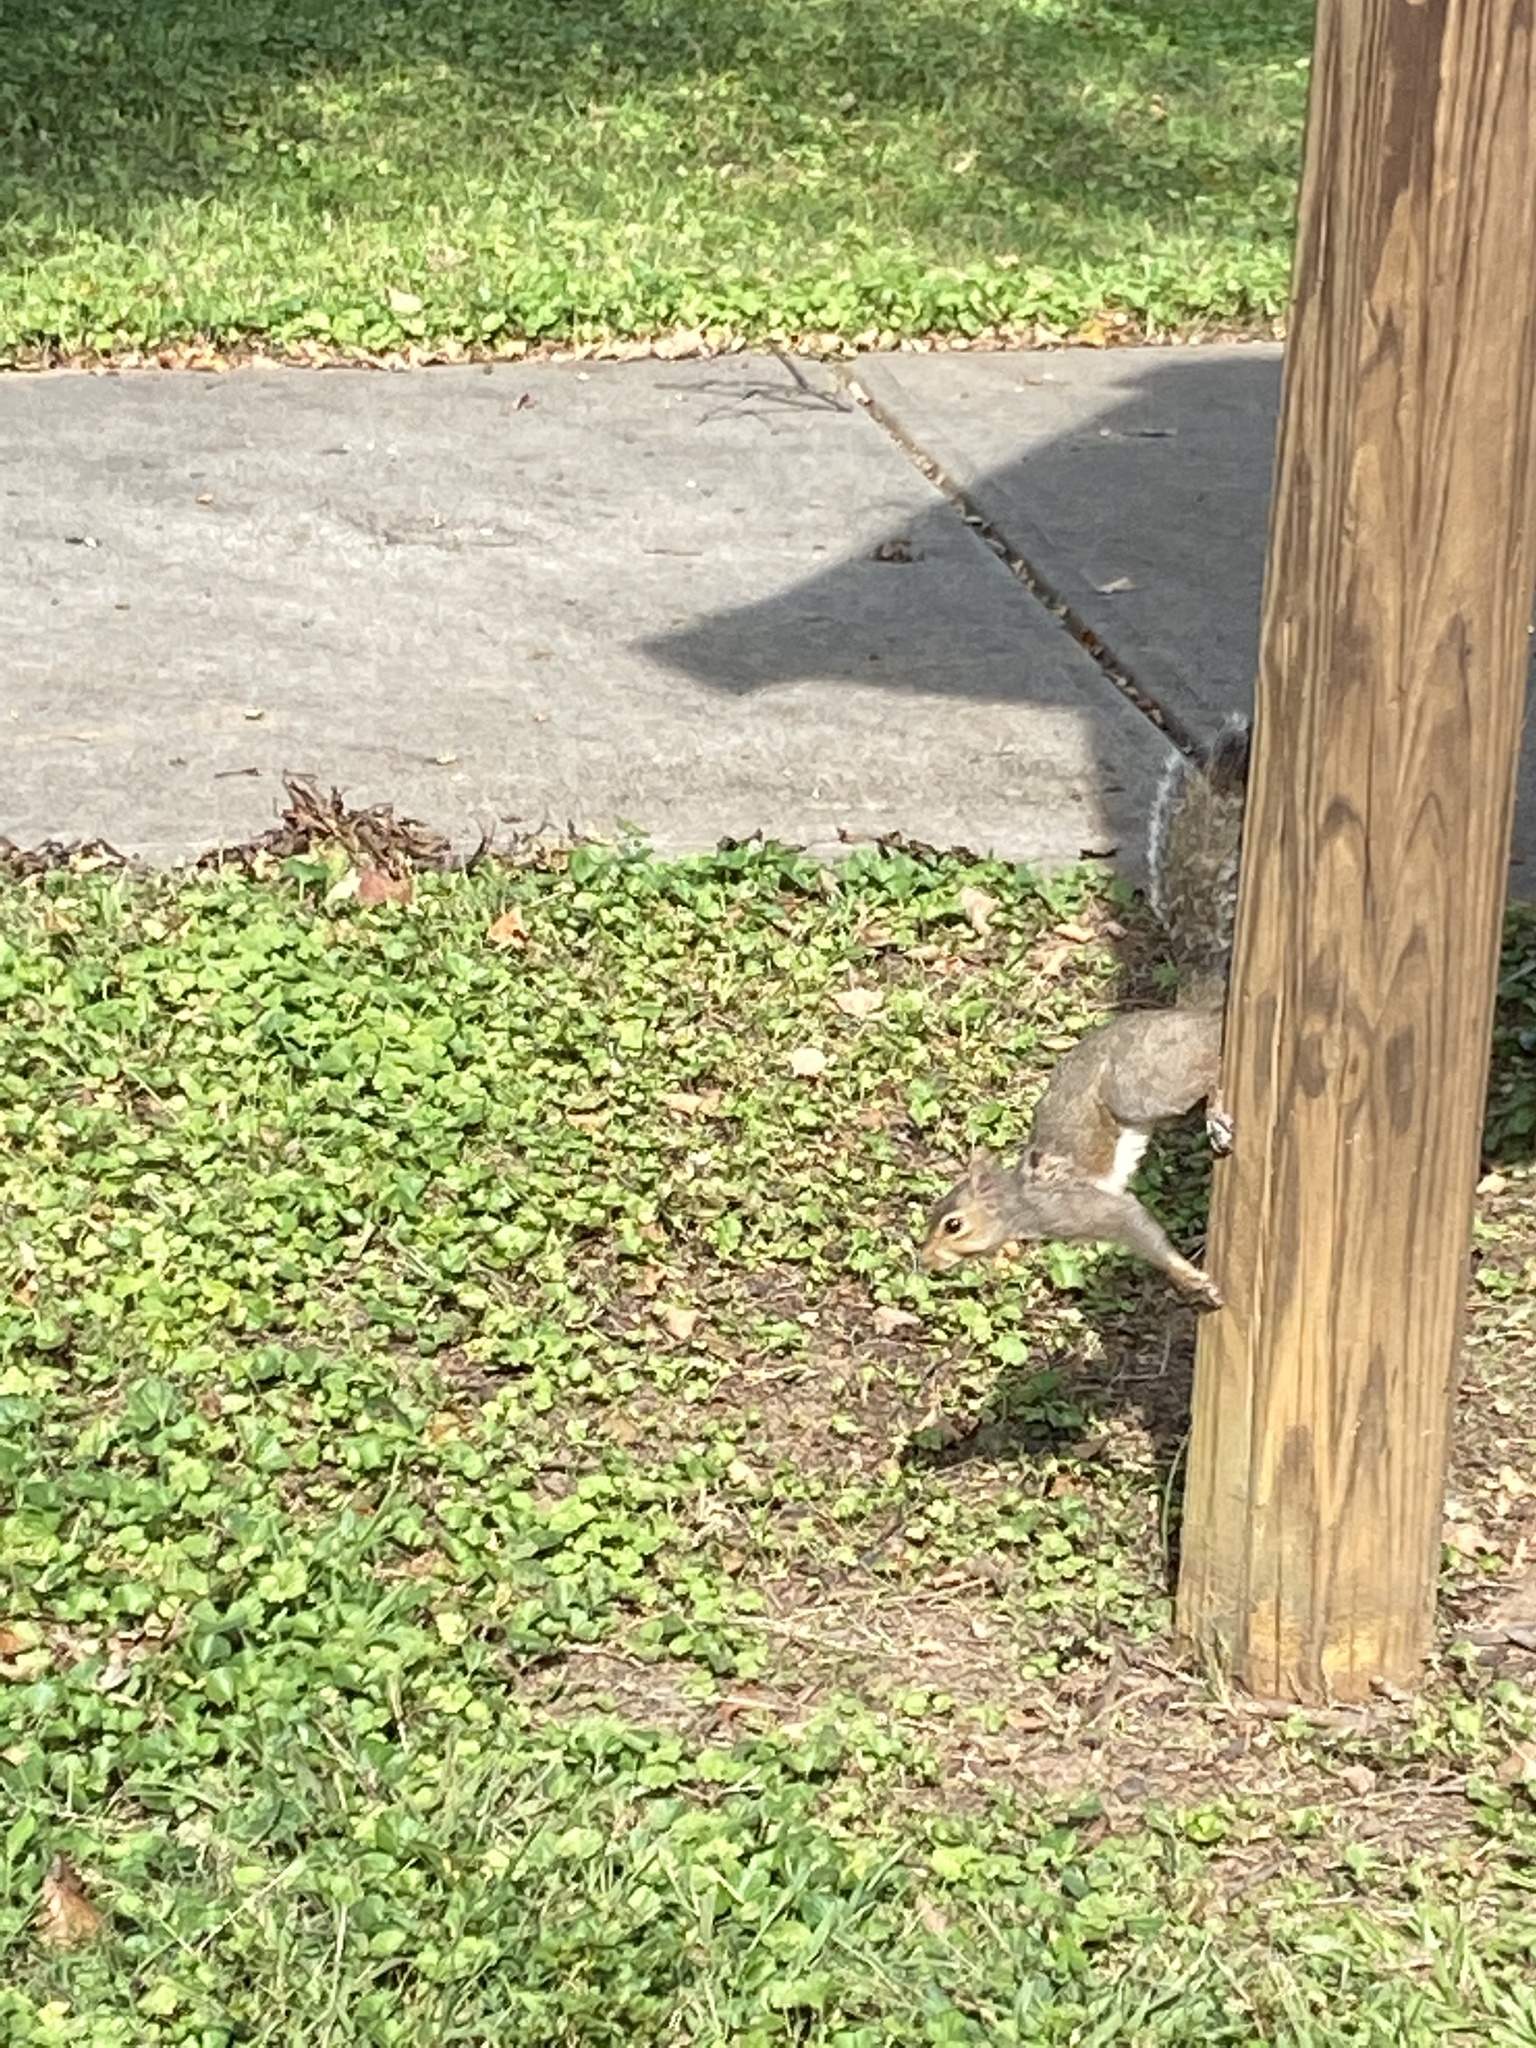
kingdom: Animalia
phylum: Chordata
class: Mammalia
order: Rodentia
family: Sciuridae
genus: Sciurus
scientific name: Sciurus carolinensis
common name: Eastern gray squirrel
